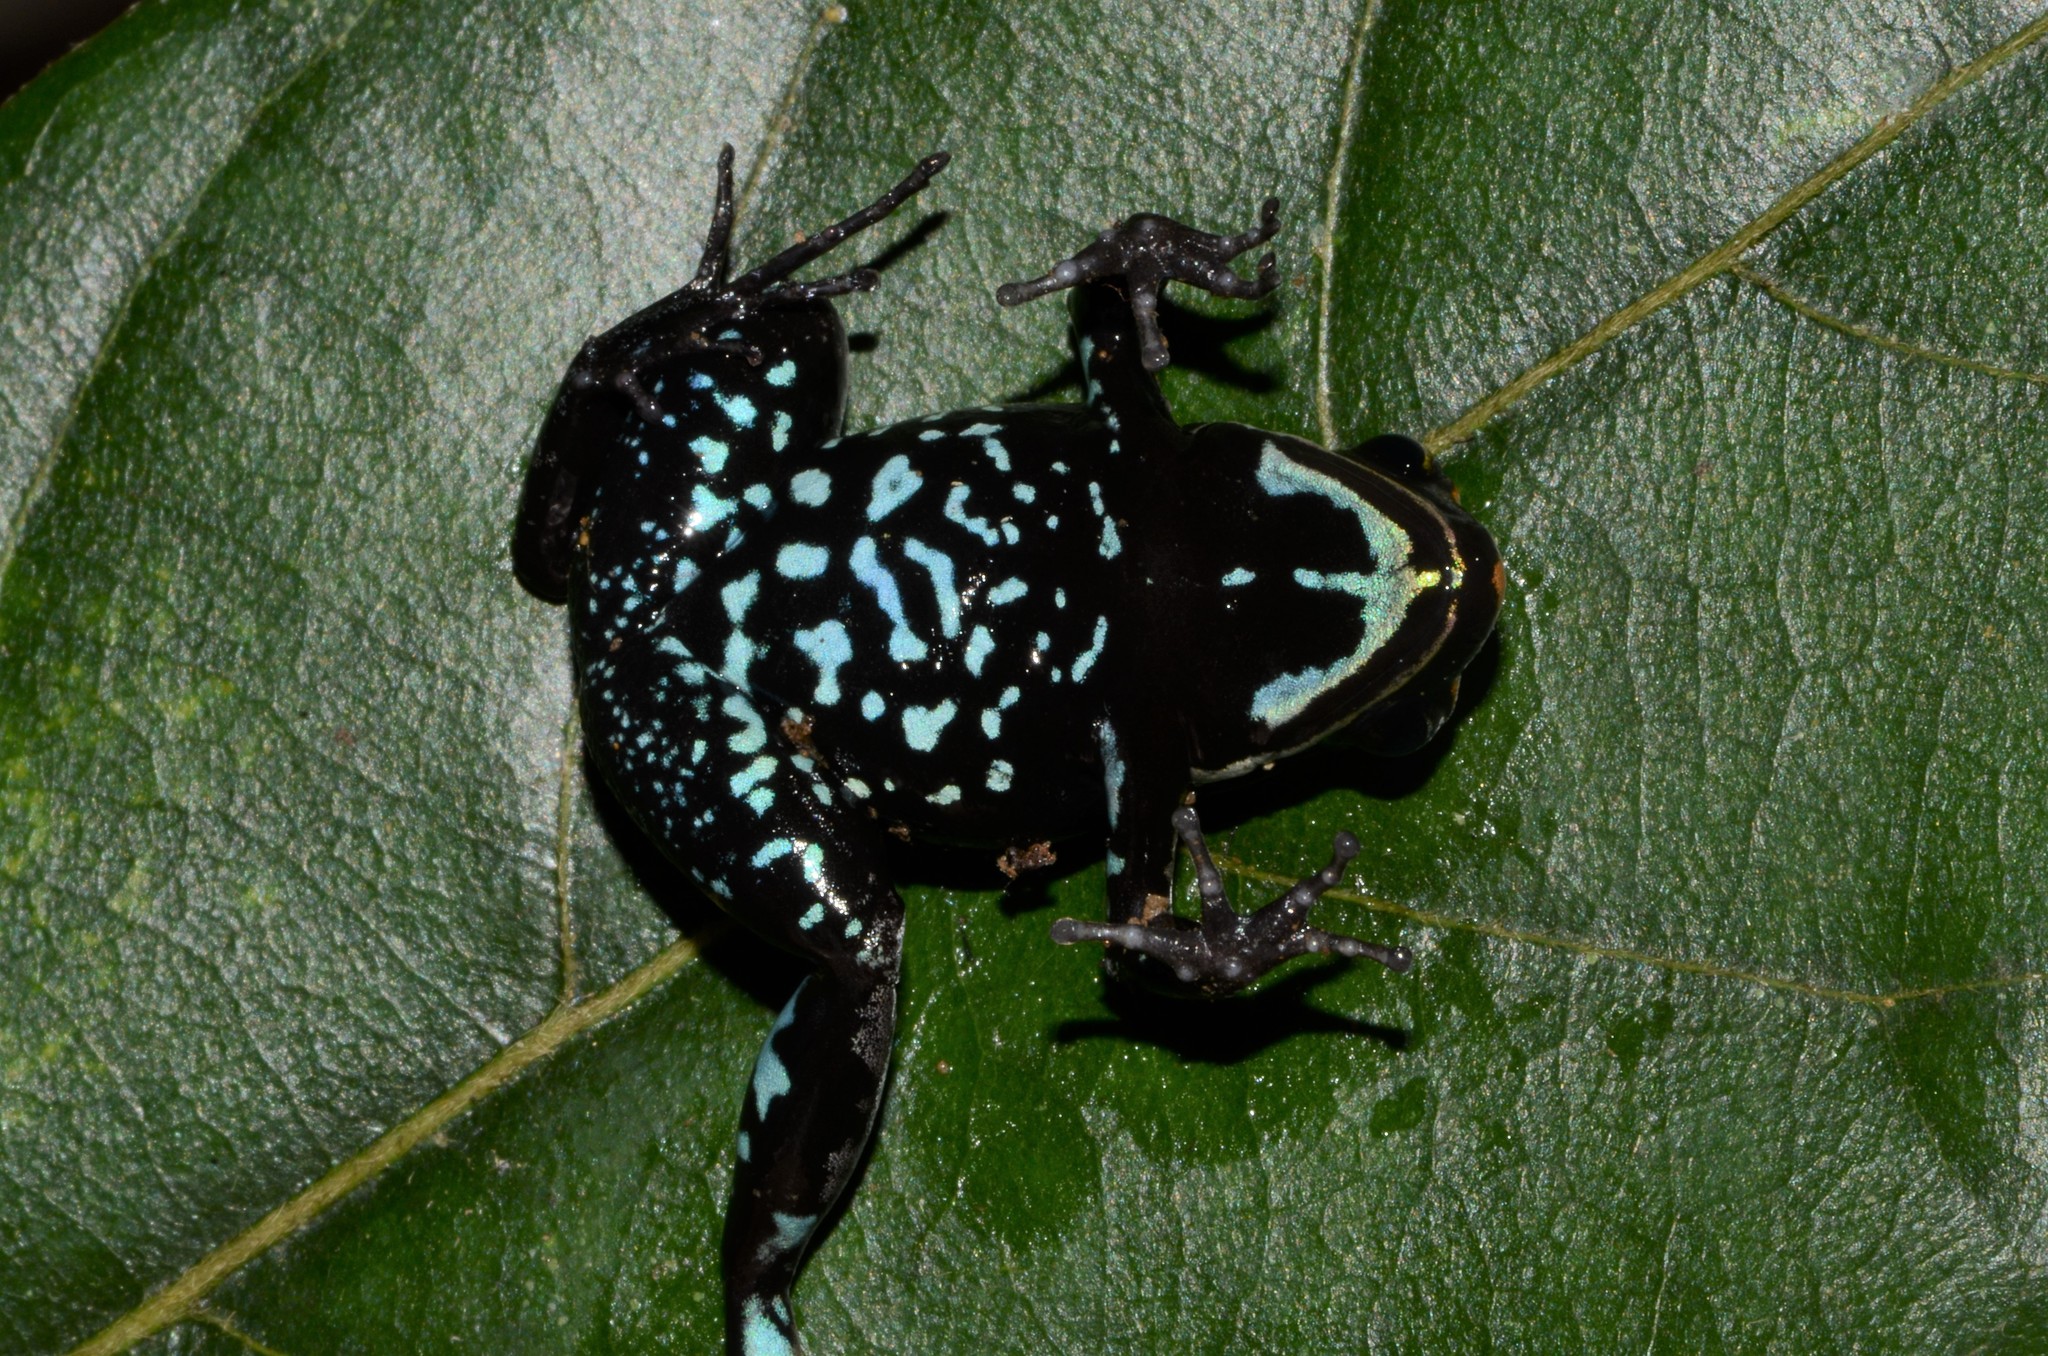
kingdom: Animalia
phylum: Chordata
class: Amphibia
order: Anura
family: Mantellidae
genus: Mantella
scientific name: Mantella ebenaui
